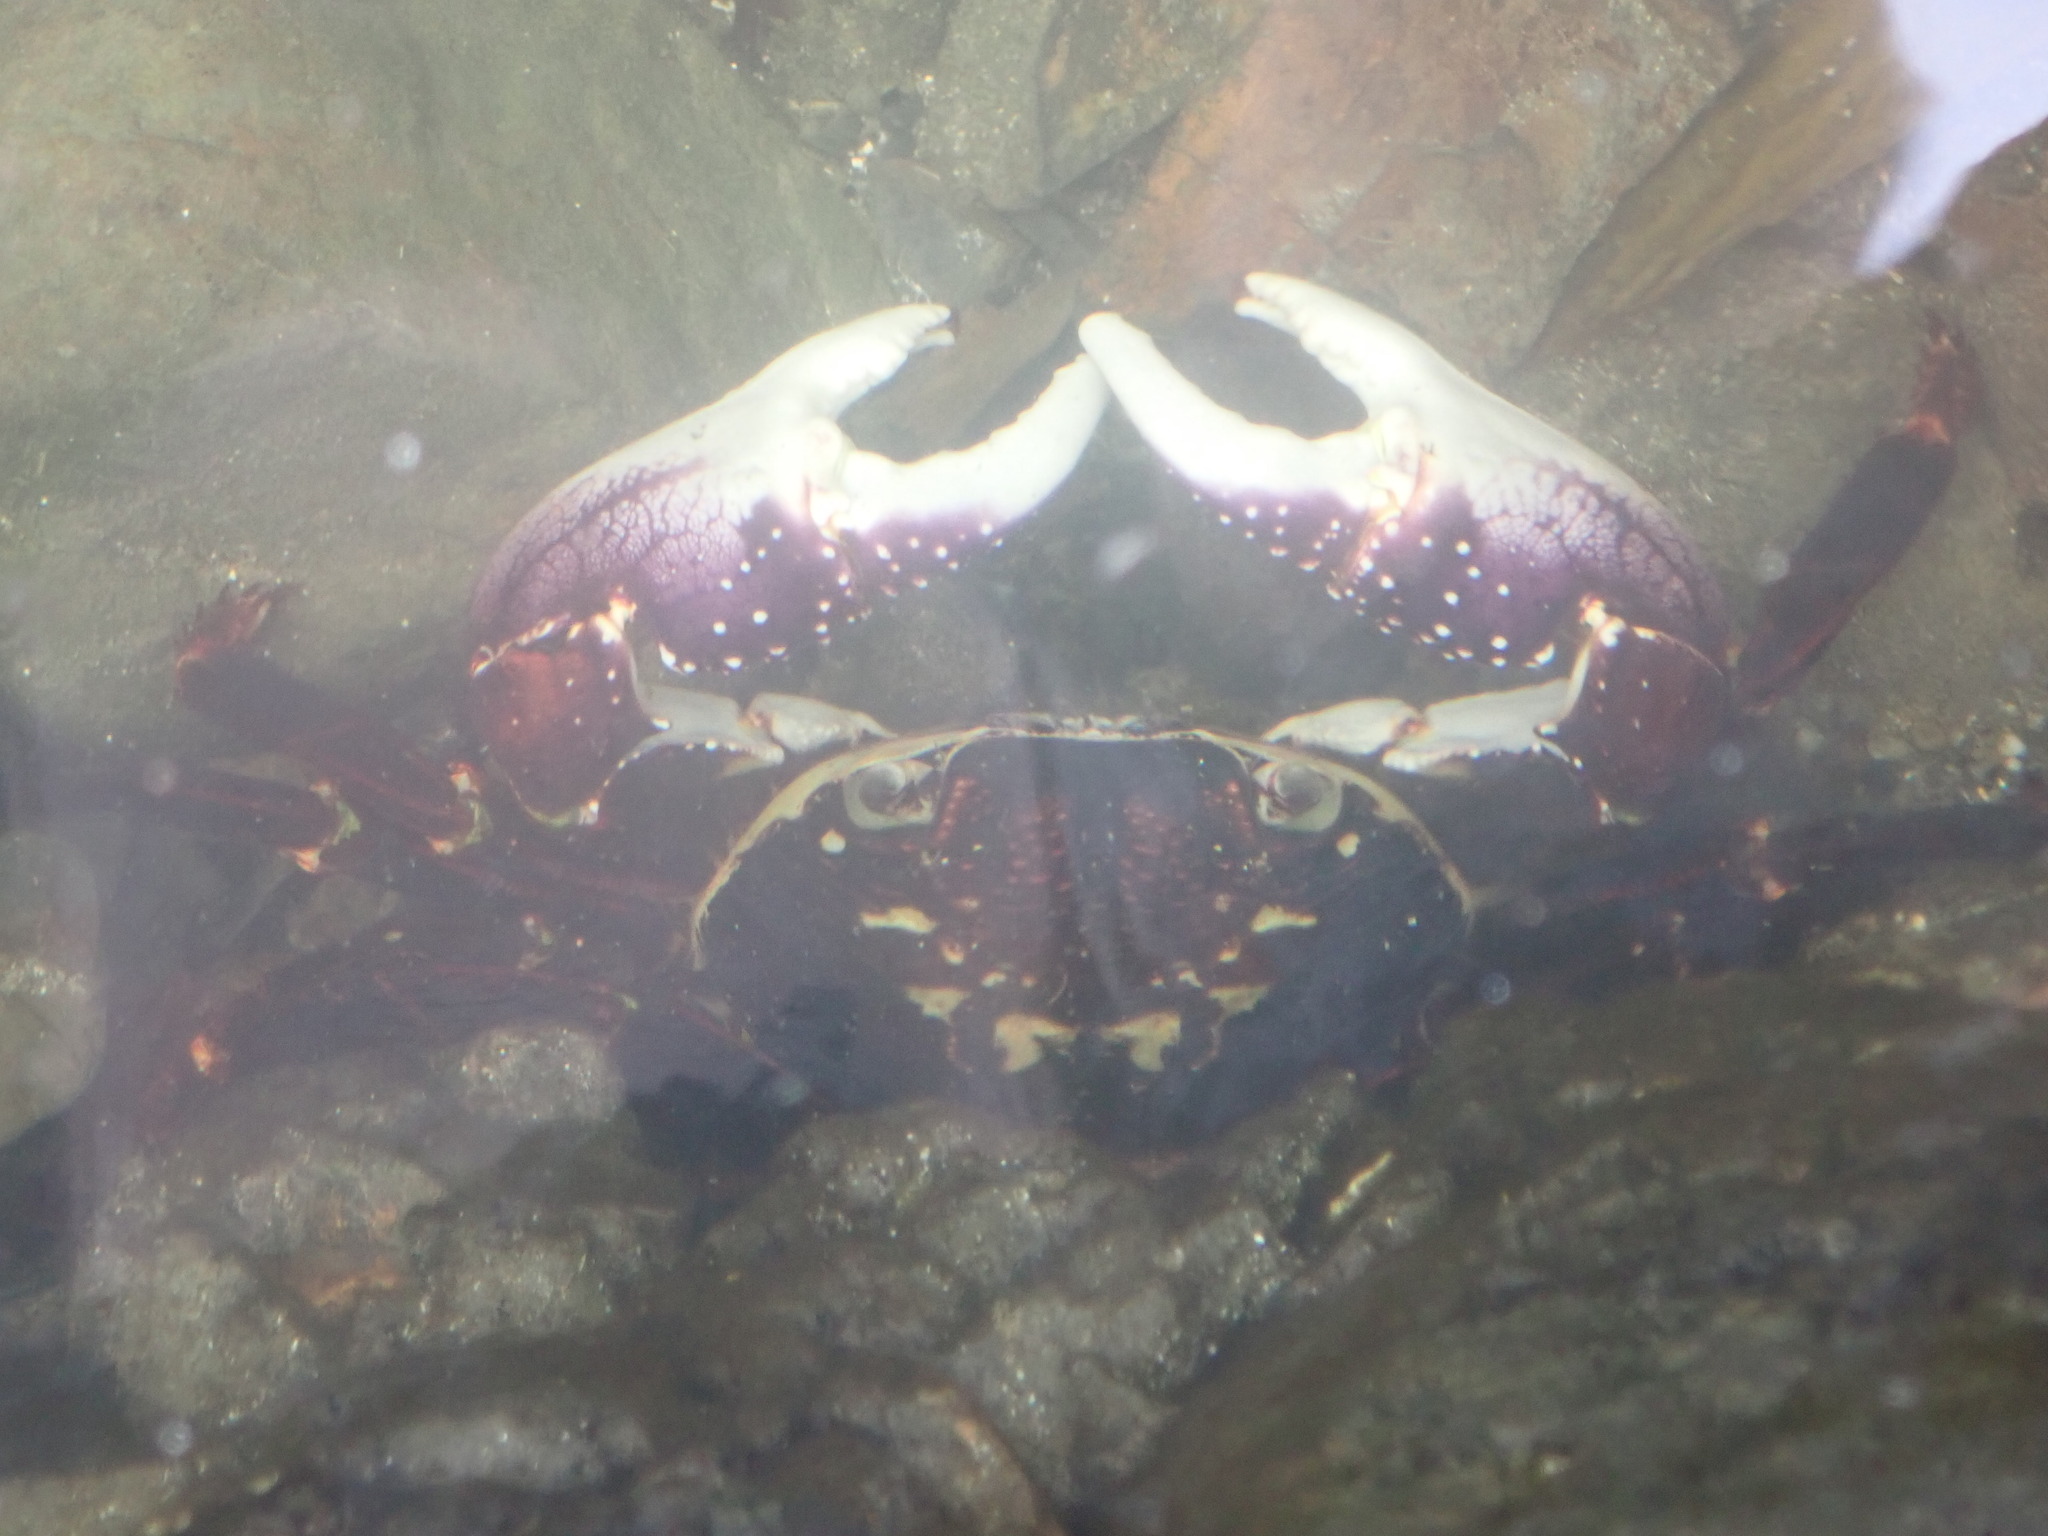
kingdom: Animalia
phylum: Arthropoda
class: Malacostraca
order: Decapoda
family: Grapsidae
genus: Leptograpsus
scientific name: Leptograpsus variegatus
